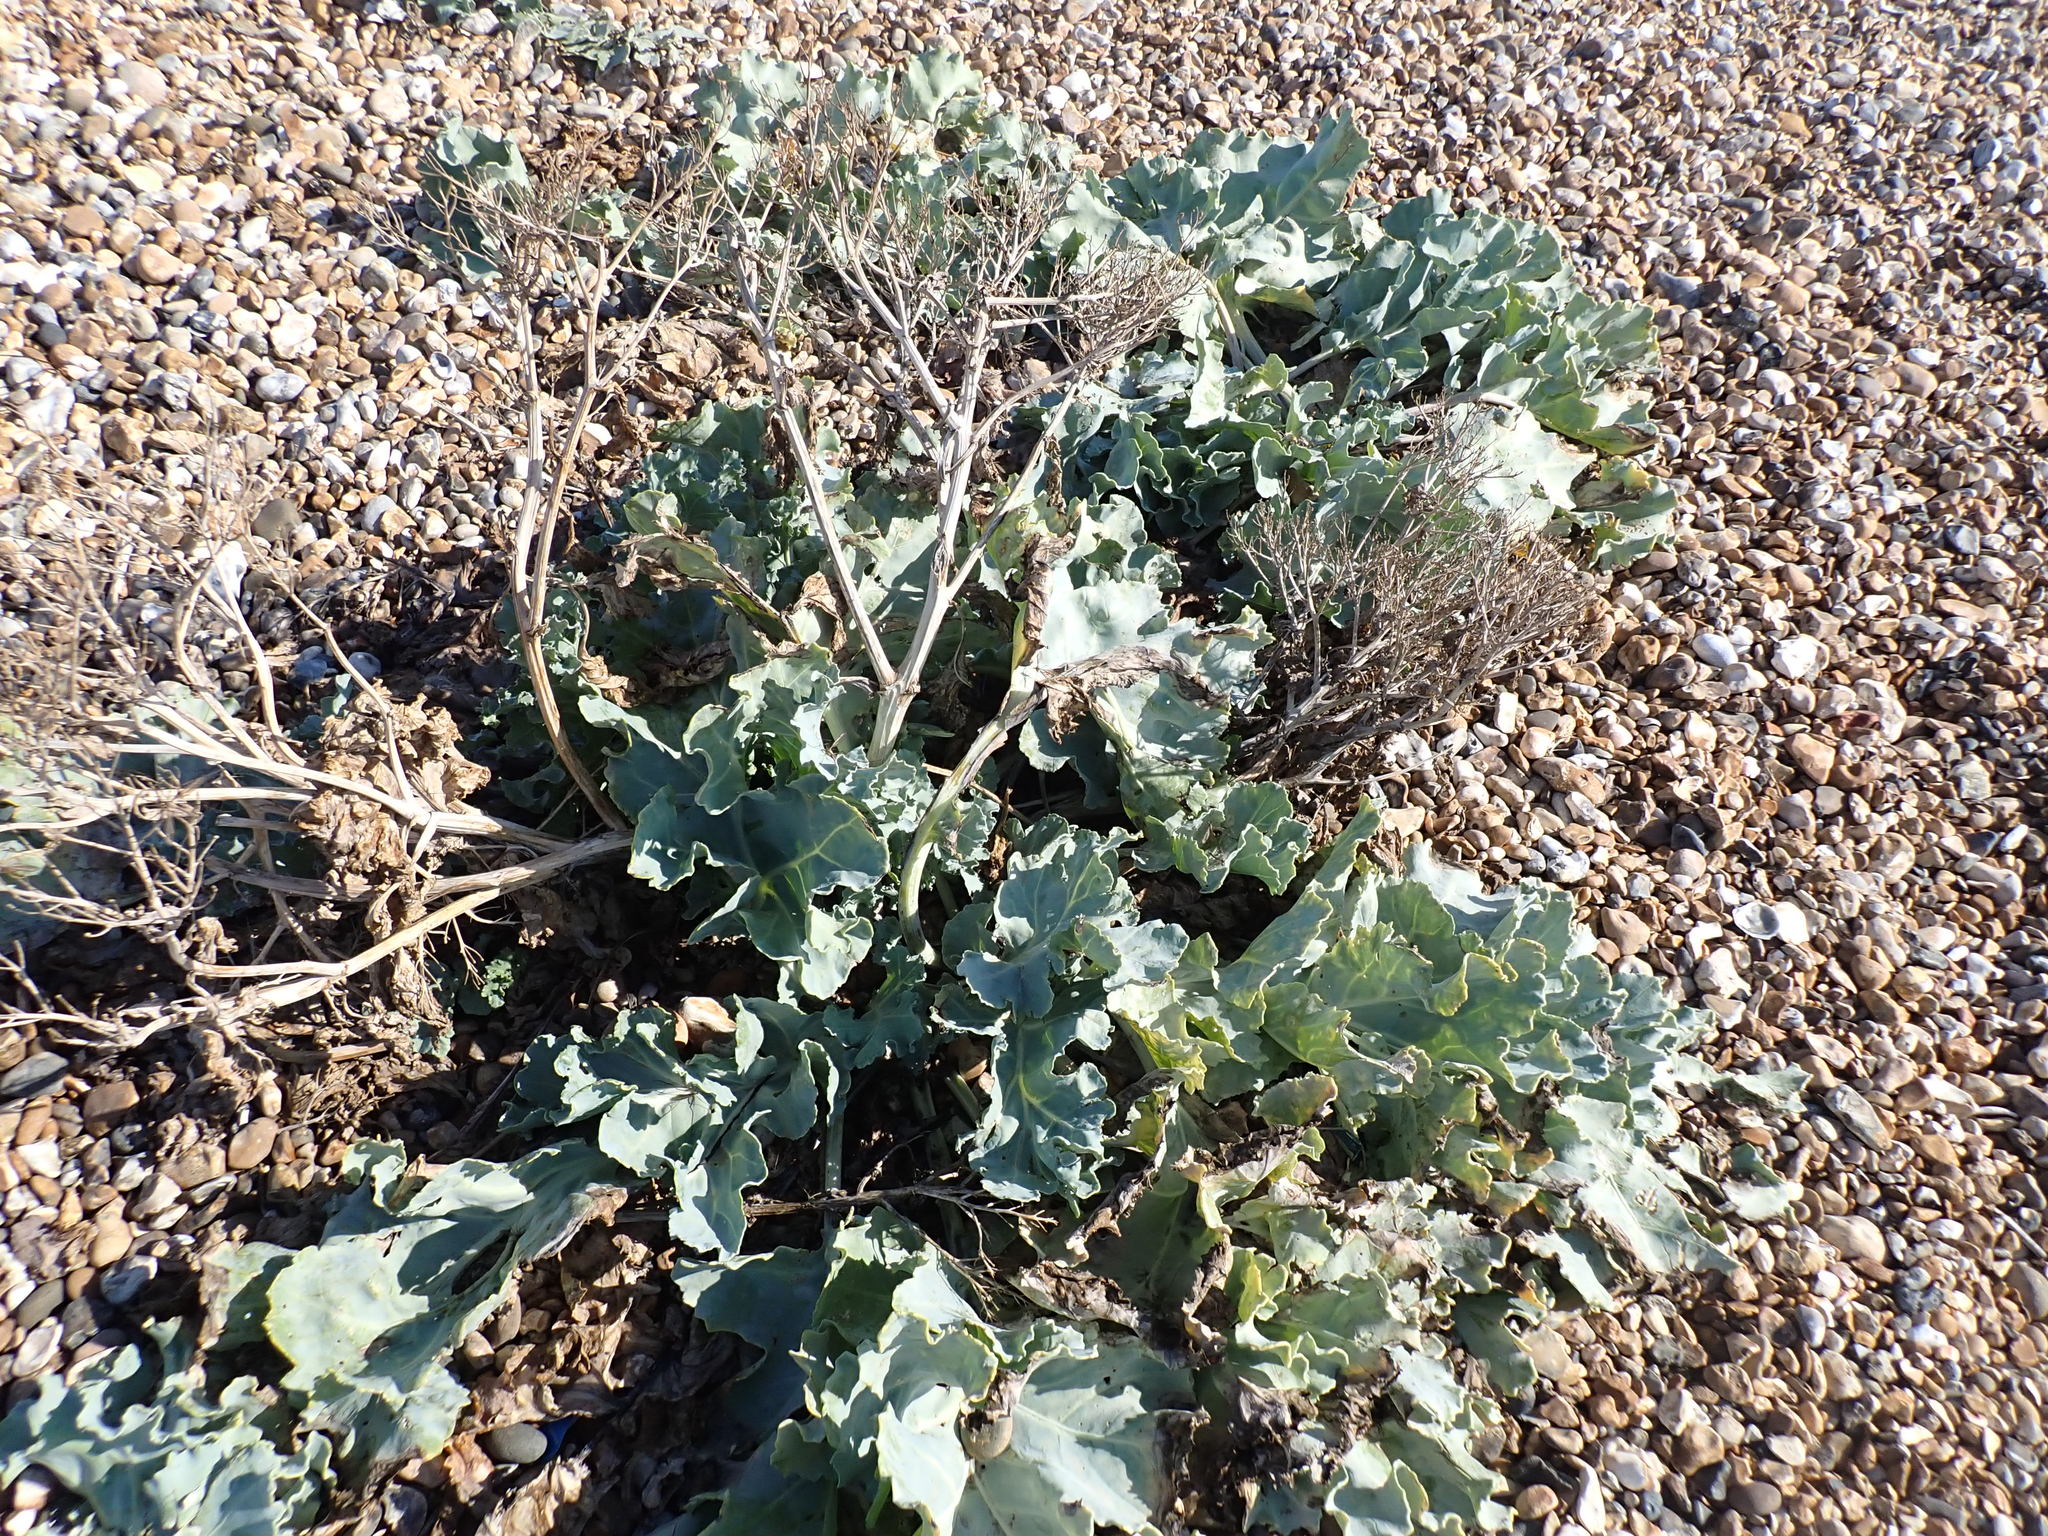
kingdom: Plantae
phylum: Tracheophyta
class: Magnoliopsida
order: Brassicales
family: Brassicaceae
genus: Crambe
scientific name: Crambe maritima
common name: Sea-kale
